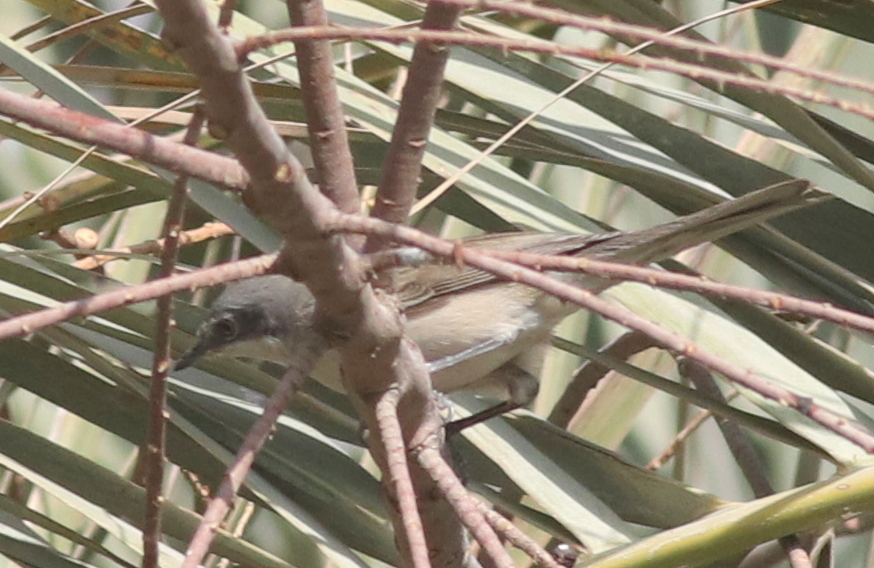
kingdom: Animalia
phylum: Chordata
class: Aves
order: Passeriformes
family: Sylviidae
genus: Sylvia
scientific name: Sylvia curruca
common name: Lesser whitethroat
